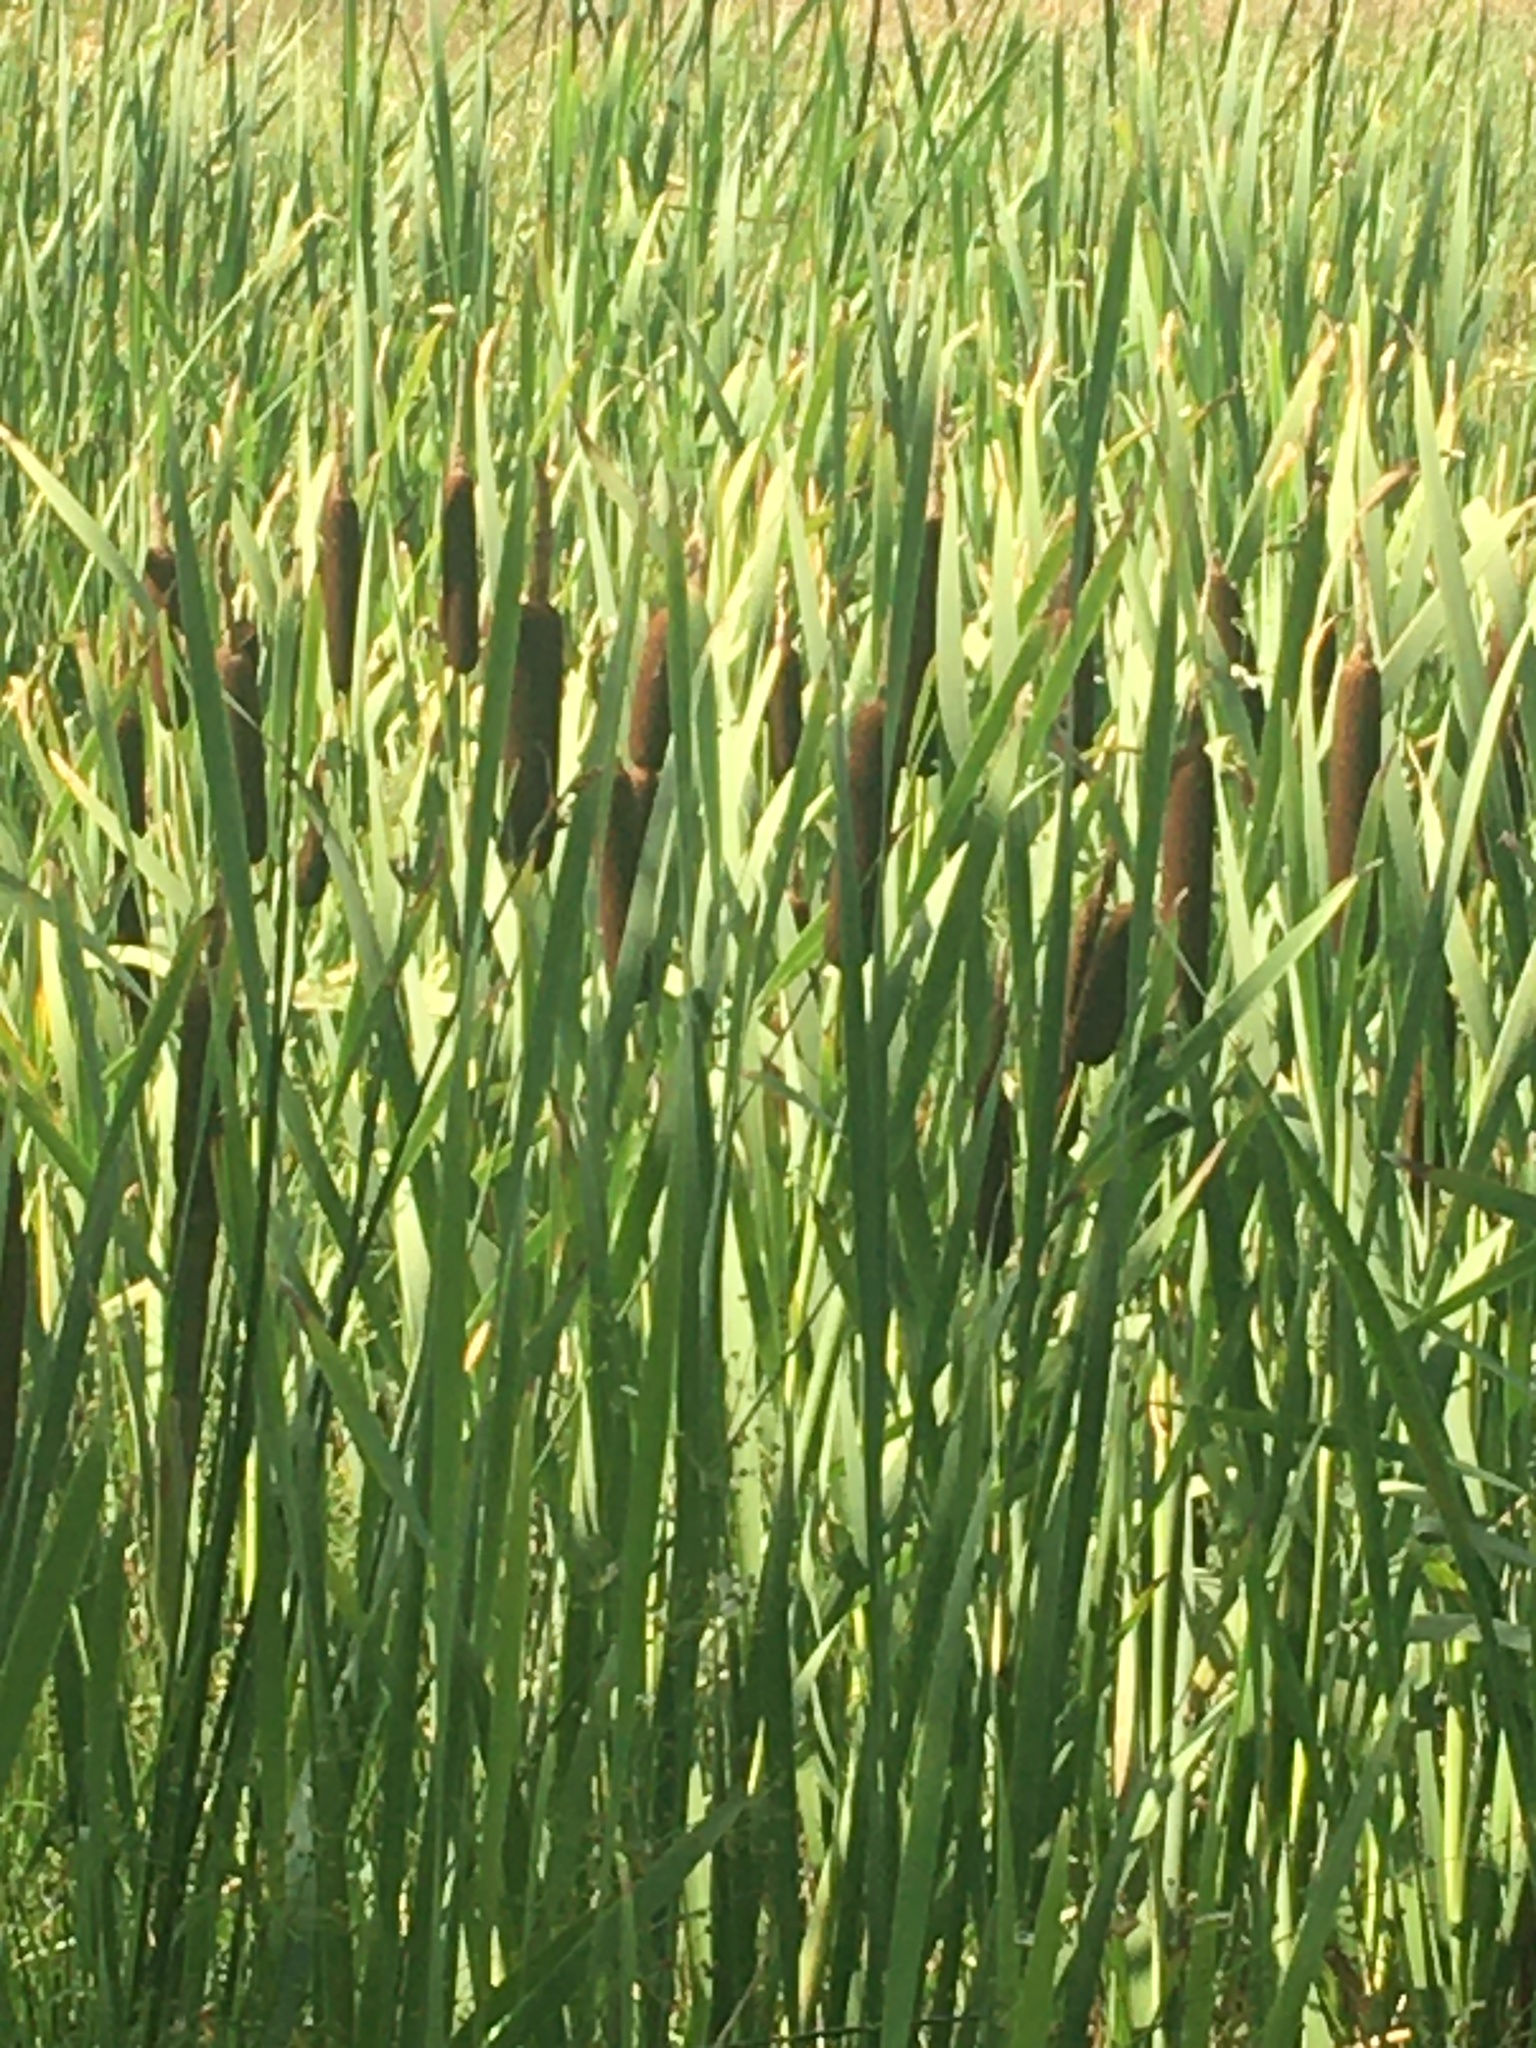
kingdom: Plantae
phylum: Tracheophyta
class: Liliopsida
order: Poales
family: Typhaceae
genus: Typha
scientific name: Typha latifolia
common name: Broadleaf cattail
